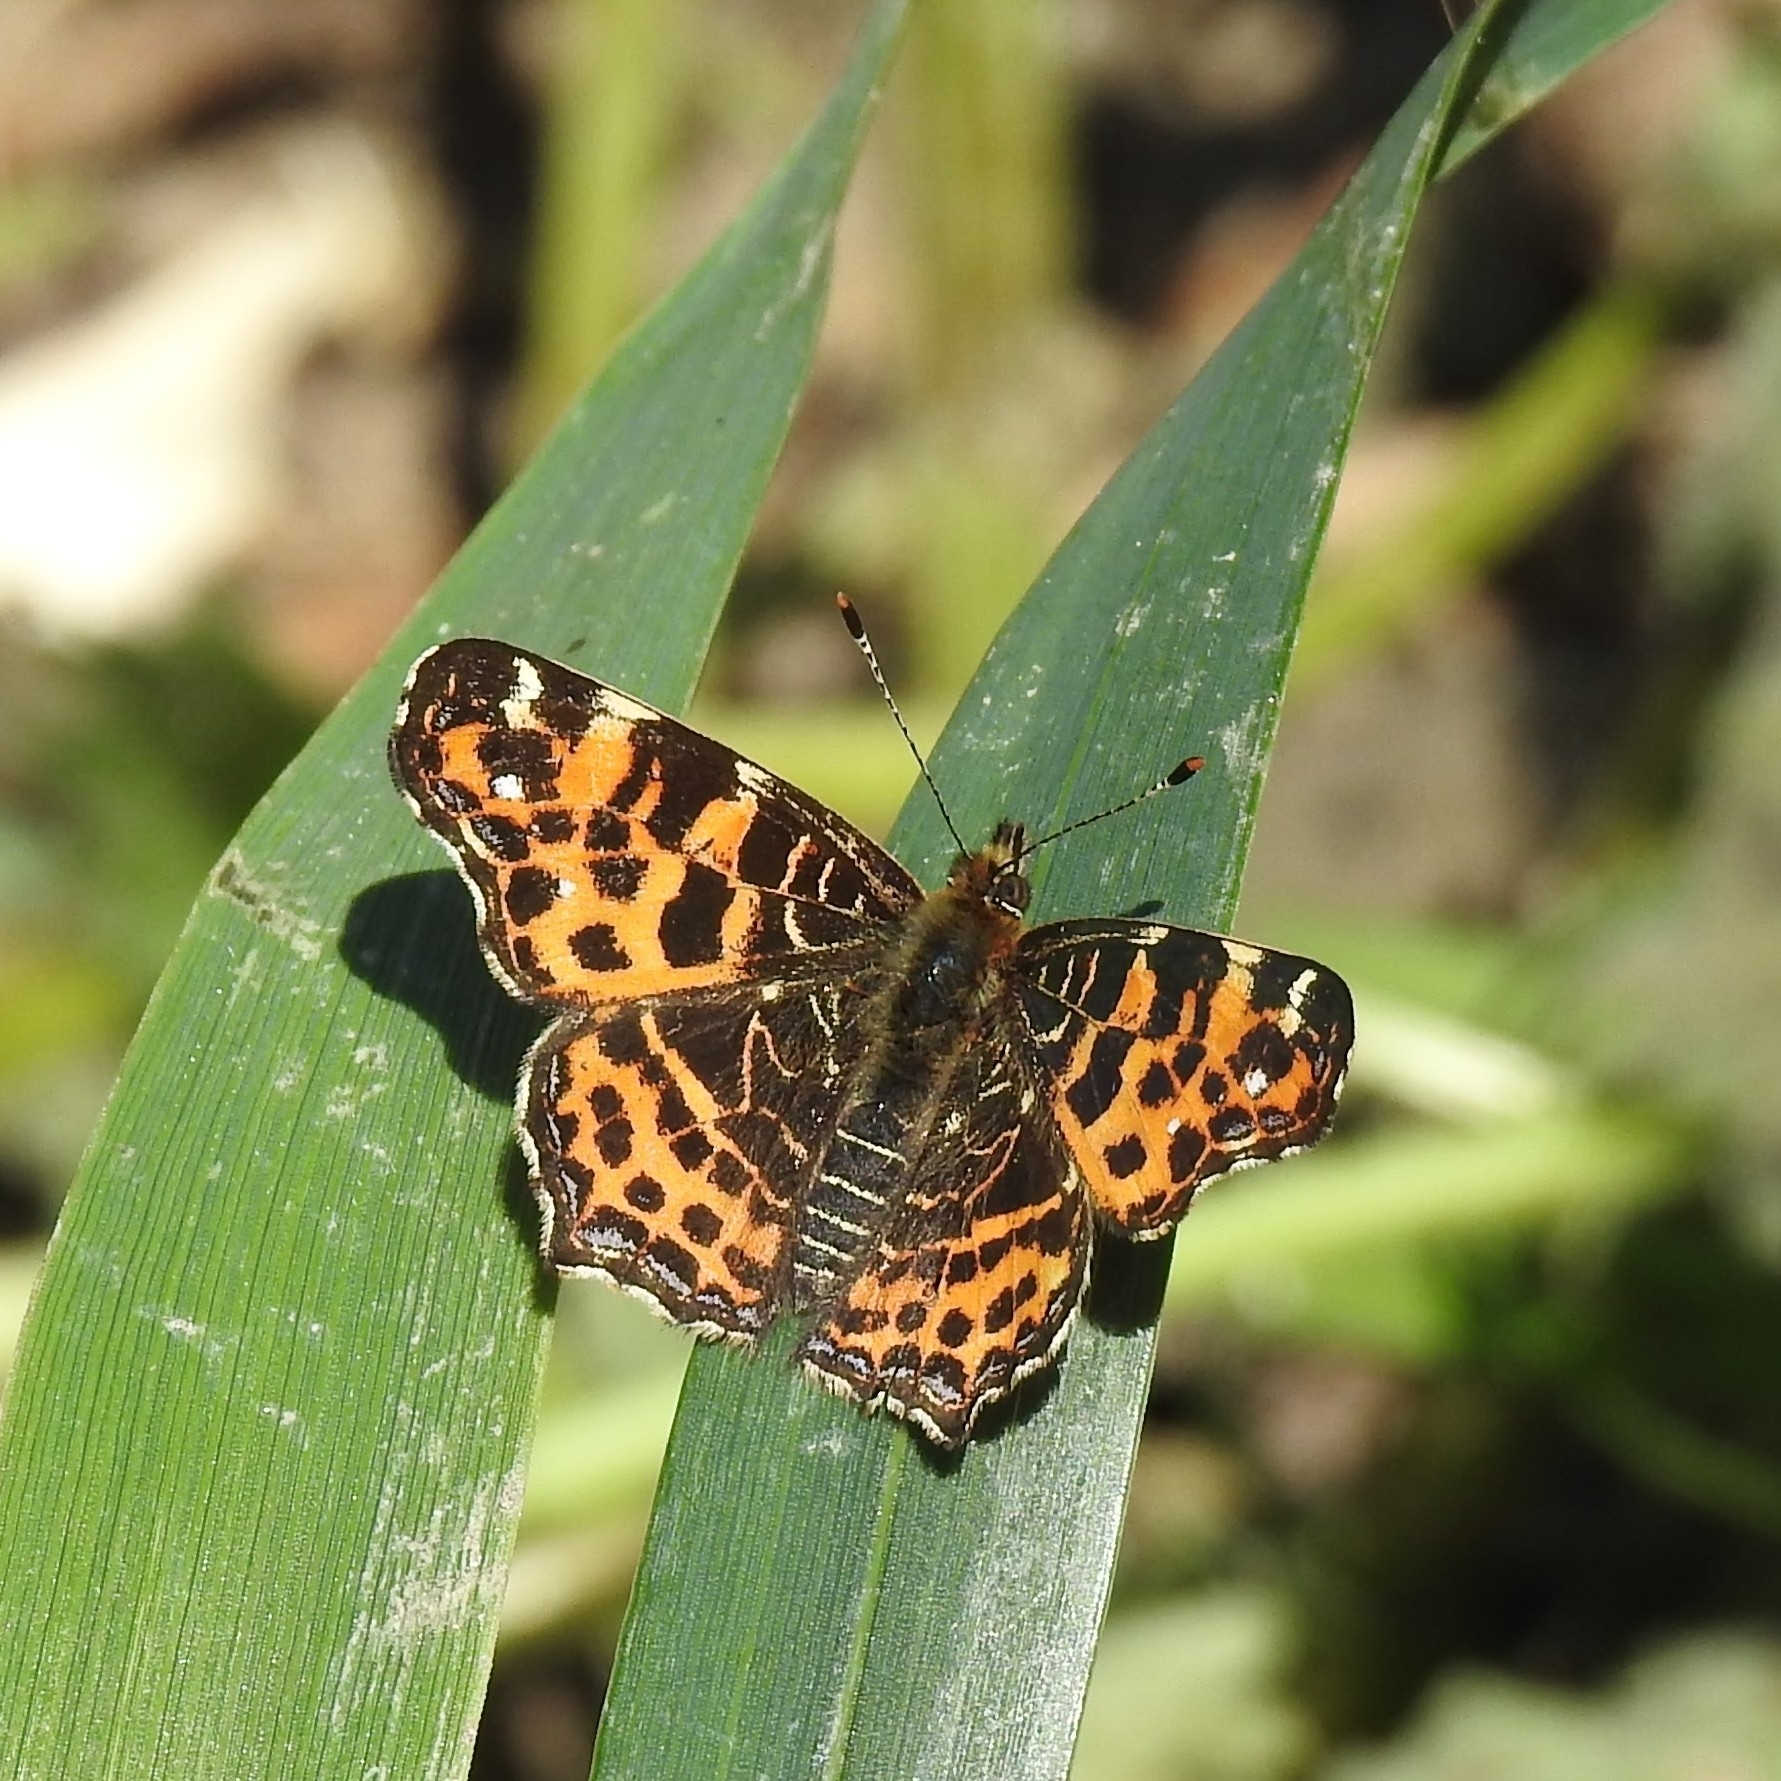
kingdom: Animalia
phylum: Arthropoda
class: Insecta
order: Lepidoptera
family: Nymphalidae
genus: Araschnia
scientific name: Araschnia levana
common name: Map butterfly
